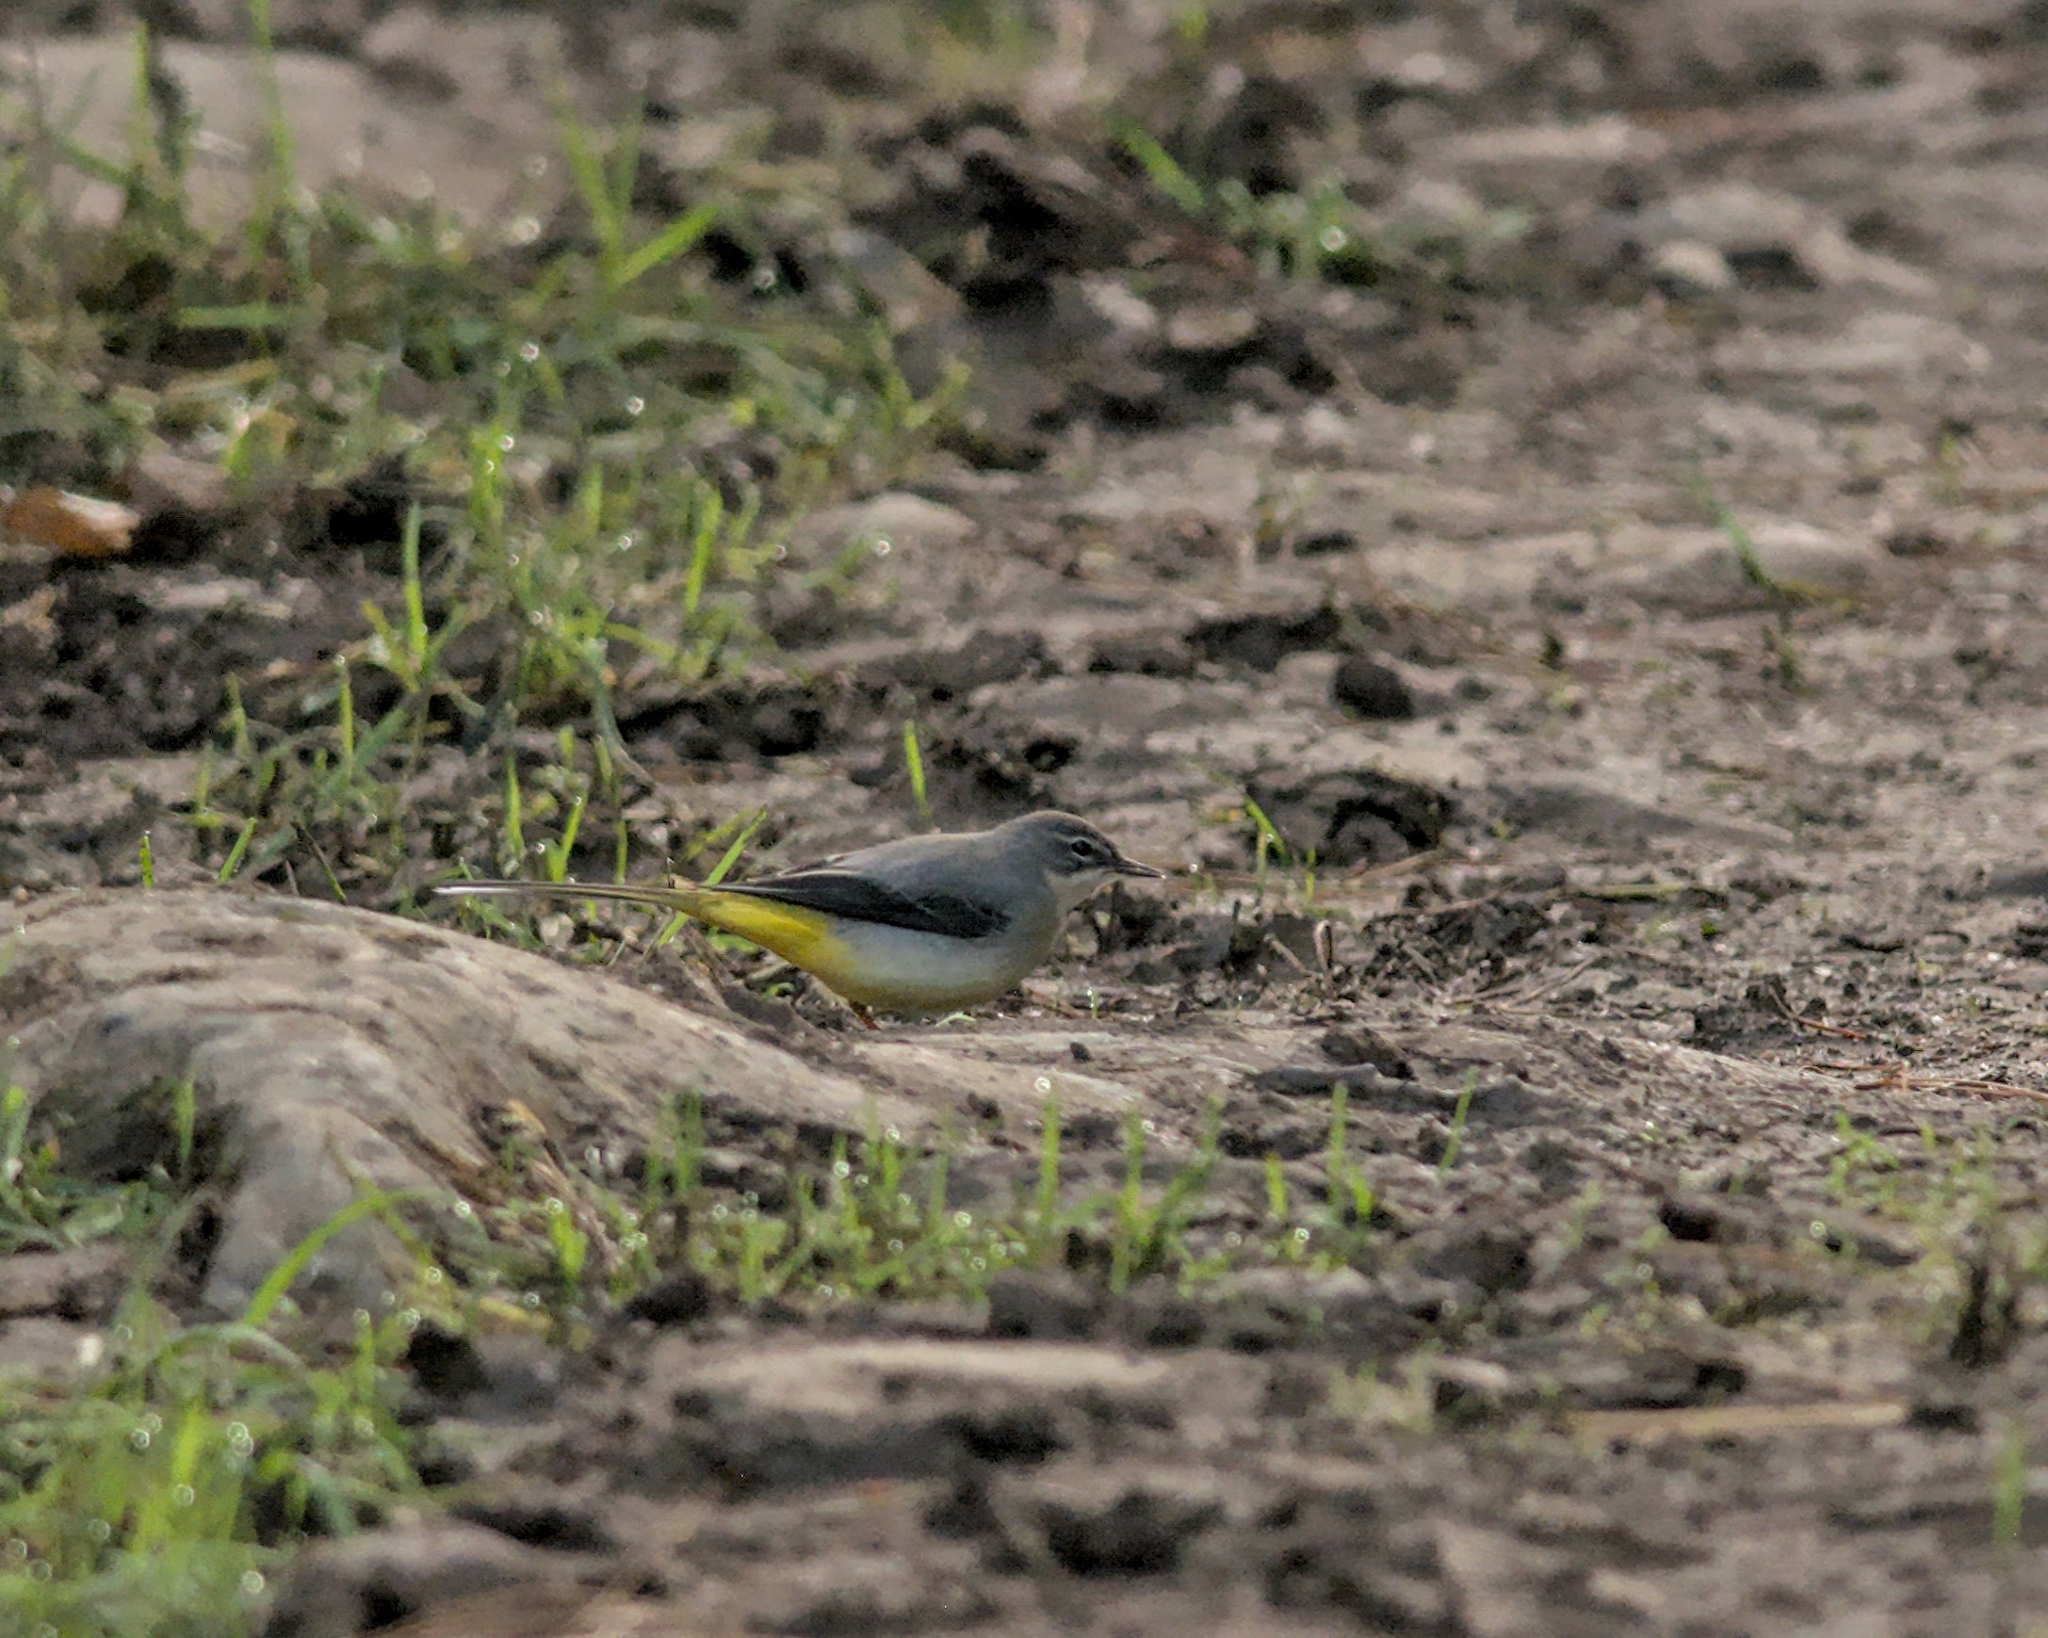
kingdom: Animalia
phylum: Chordata
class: Aves
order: Passeriformes
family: Motacillidae
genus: Motacilla
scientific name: Motacilla cinerea
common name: Grey wagtail
